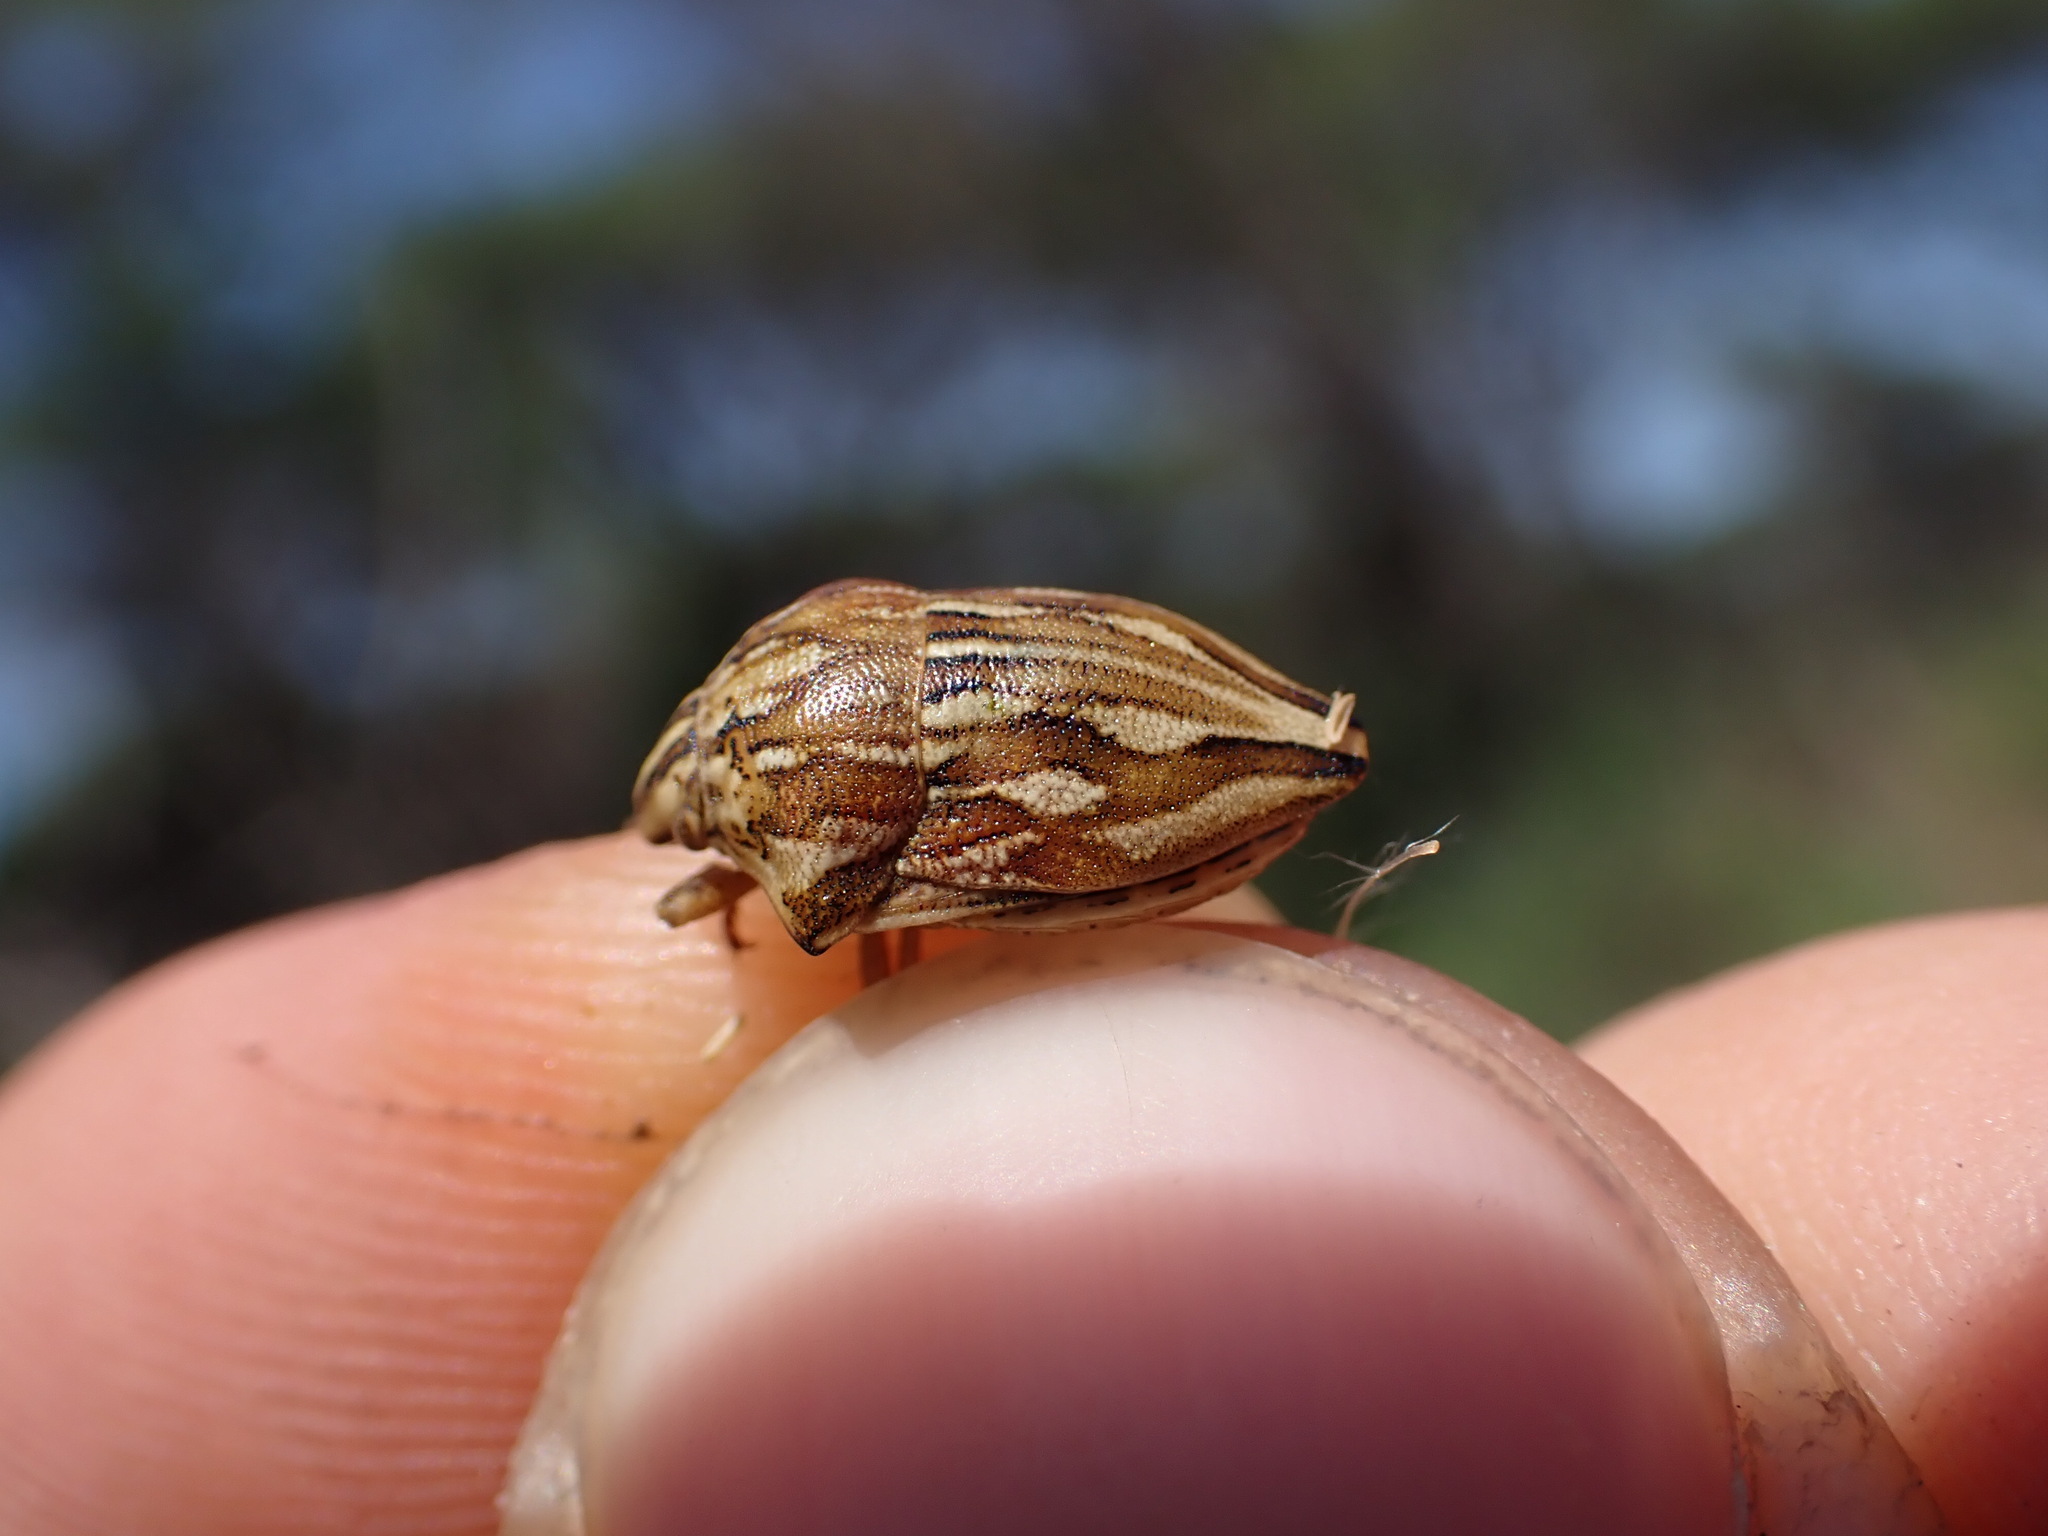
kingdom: Animalia
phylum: Arthropoda
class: Insecta
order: Hemiptera
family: Scutelleridae
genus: Odontotarsus
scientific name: Odontotarsus robustus
